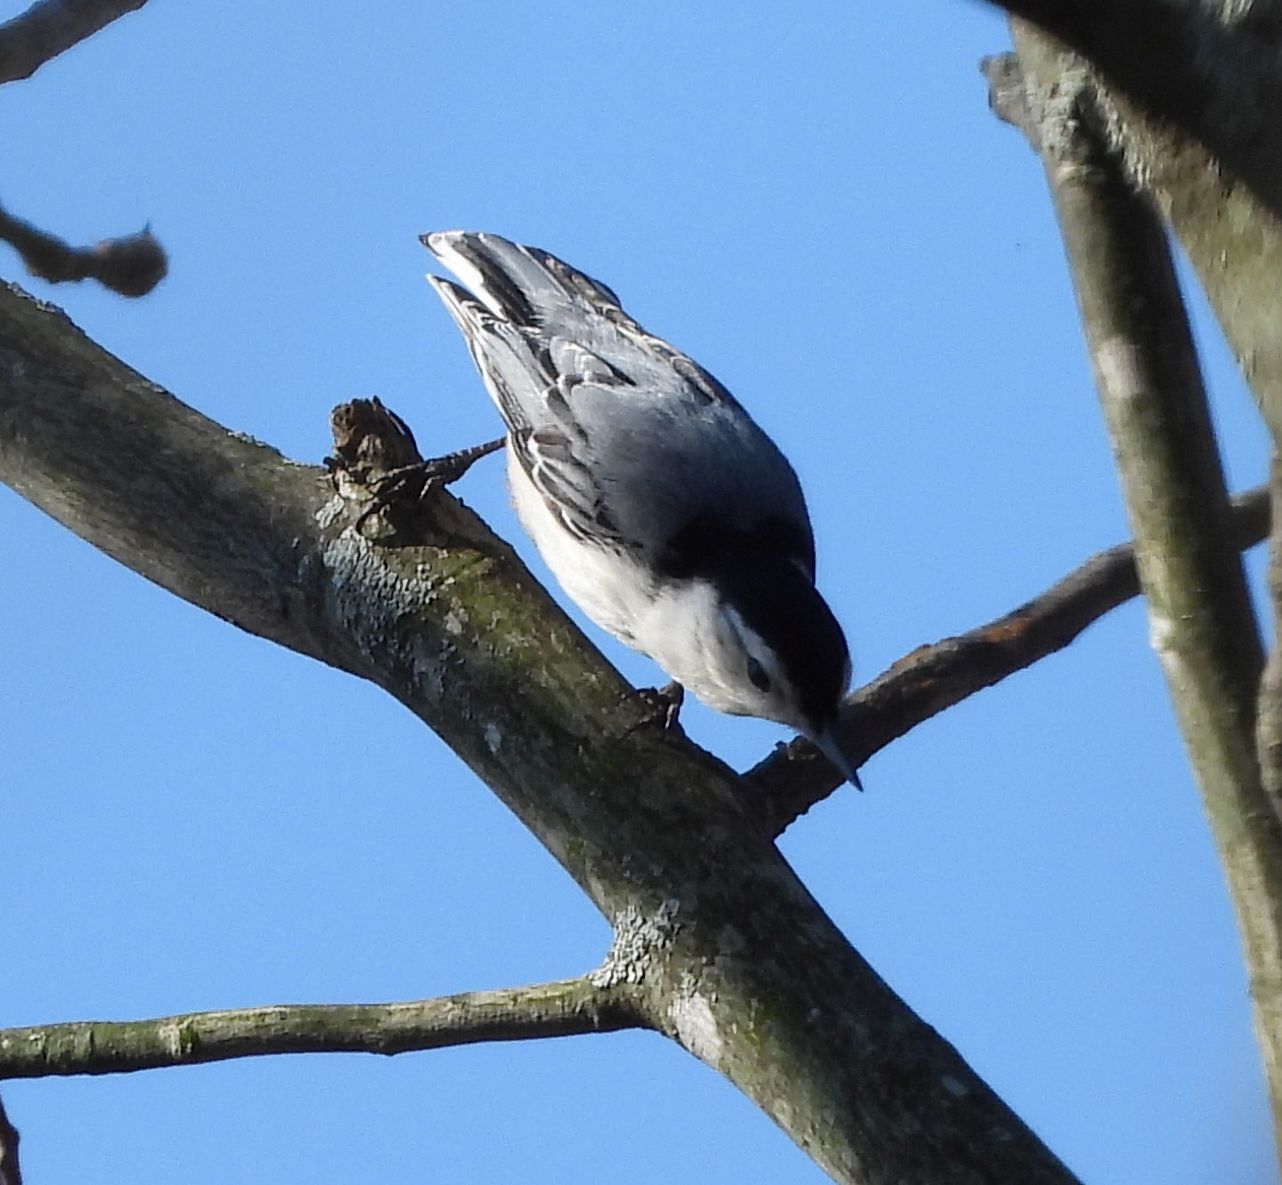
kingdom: Animalia
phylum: Chordata
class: Aves
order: Passeriformes
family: Sittidae
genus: Sitta
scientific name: Sitta carolinensis
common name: White-breasted nuthatch
